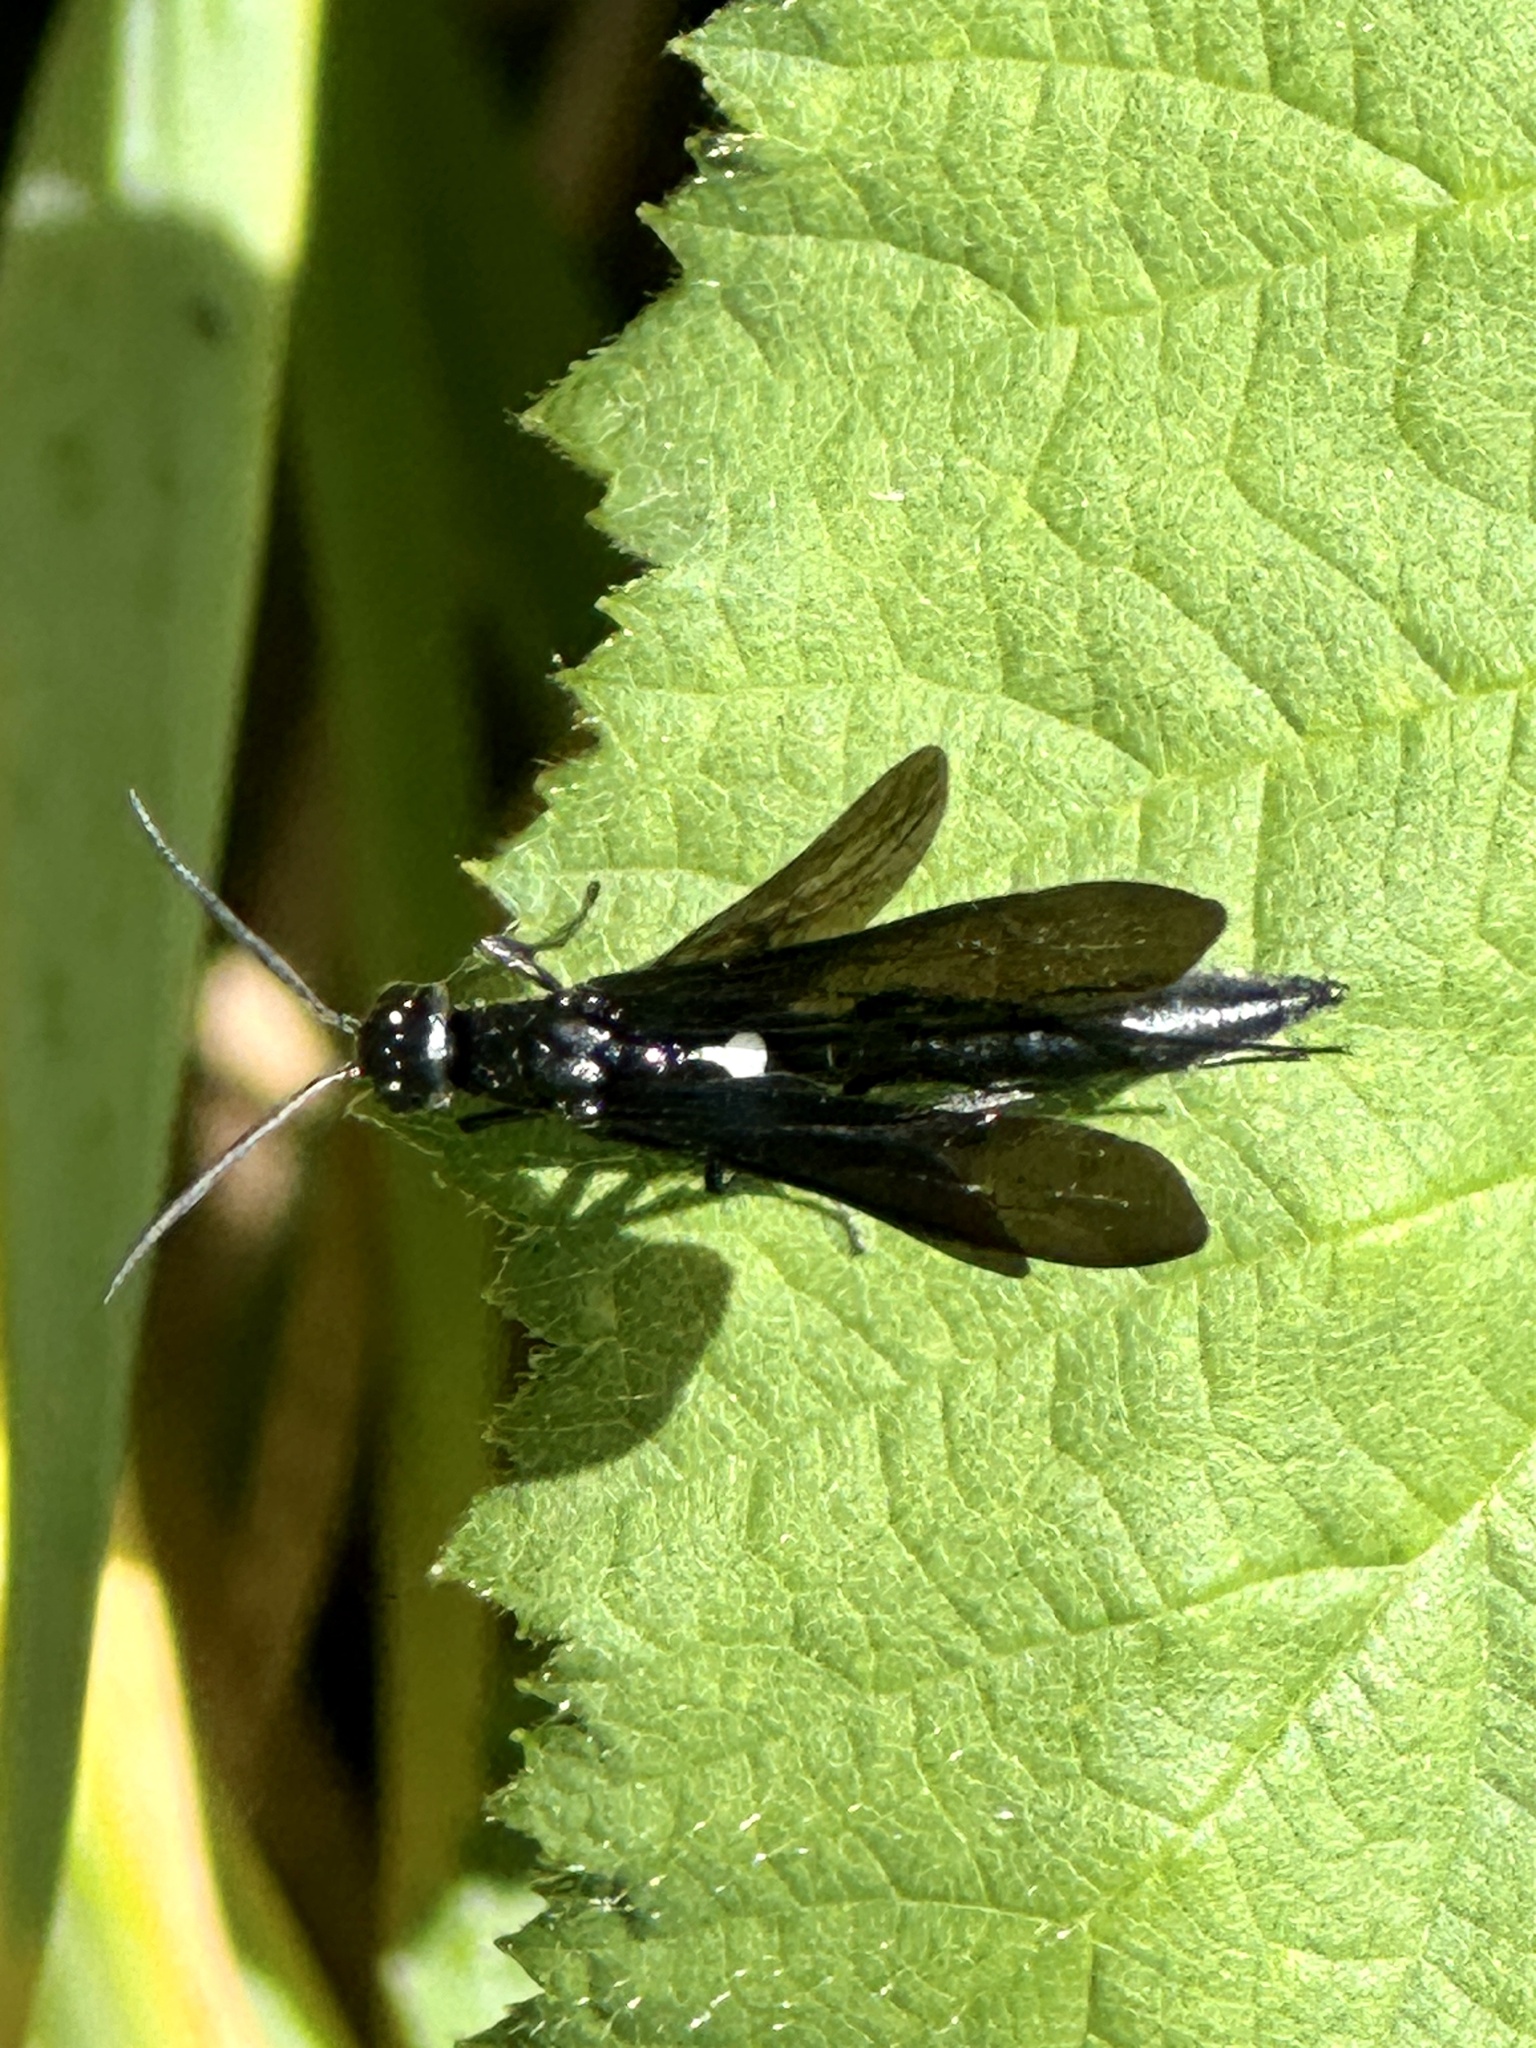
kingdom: Animalia
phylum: Arthropoda
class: Insecta
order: Hymenoptera
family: Cephidae
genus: Phylloecus
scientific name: Phylloecus trimaculatus
